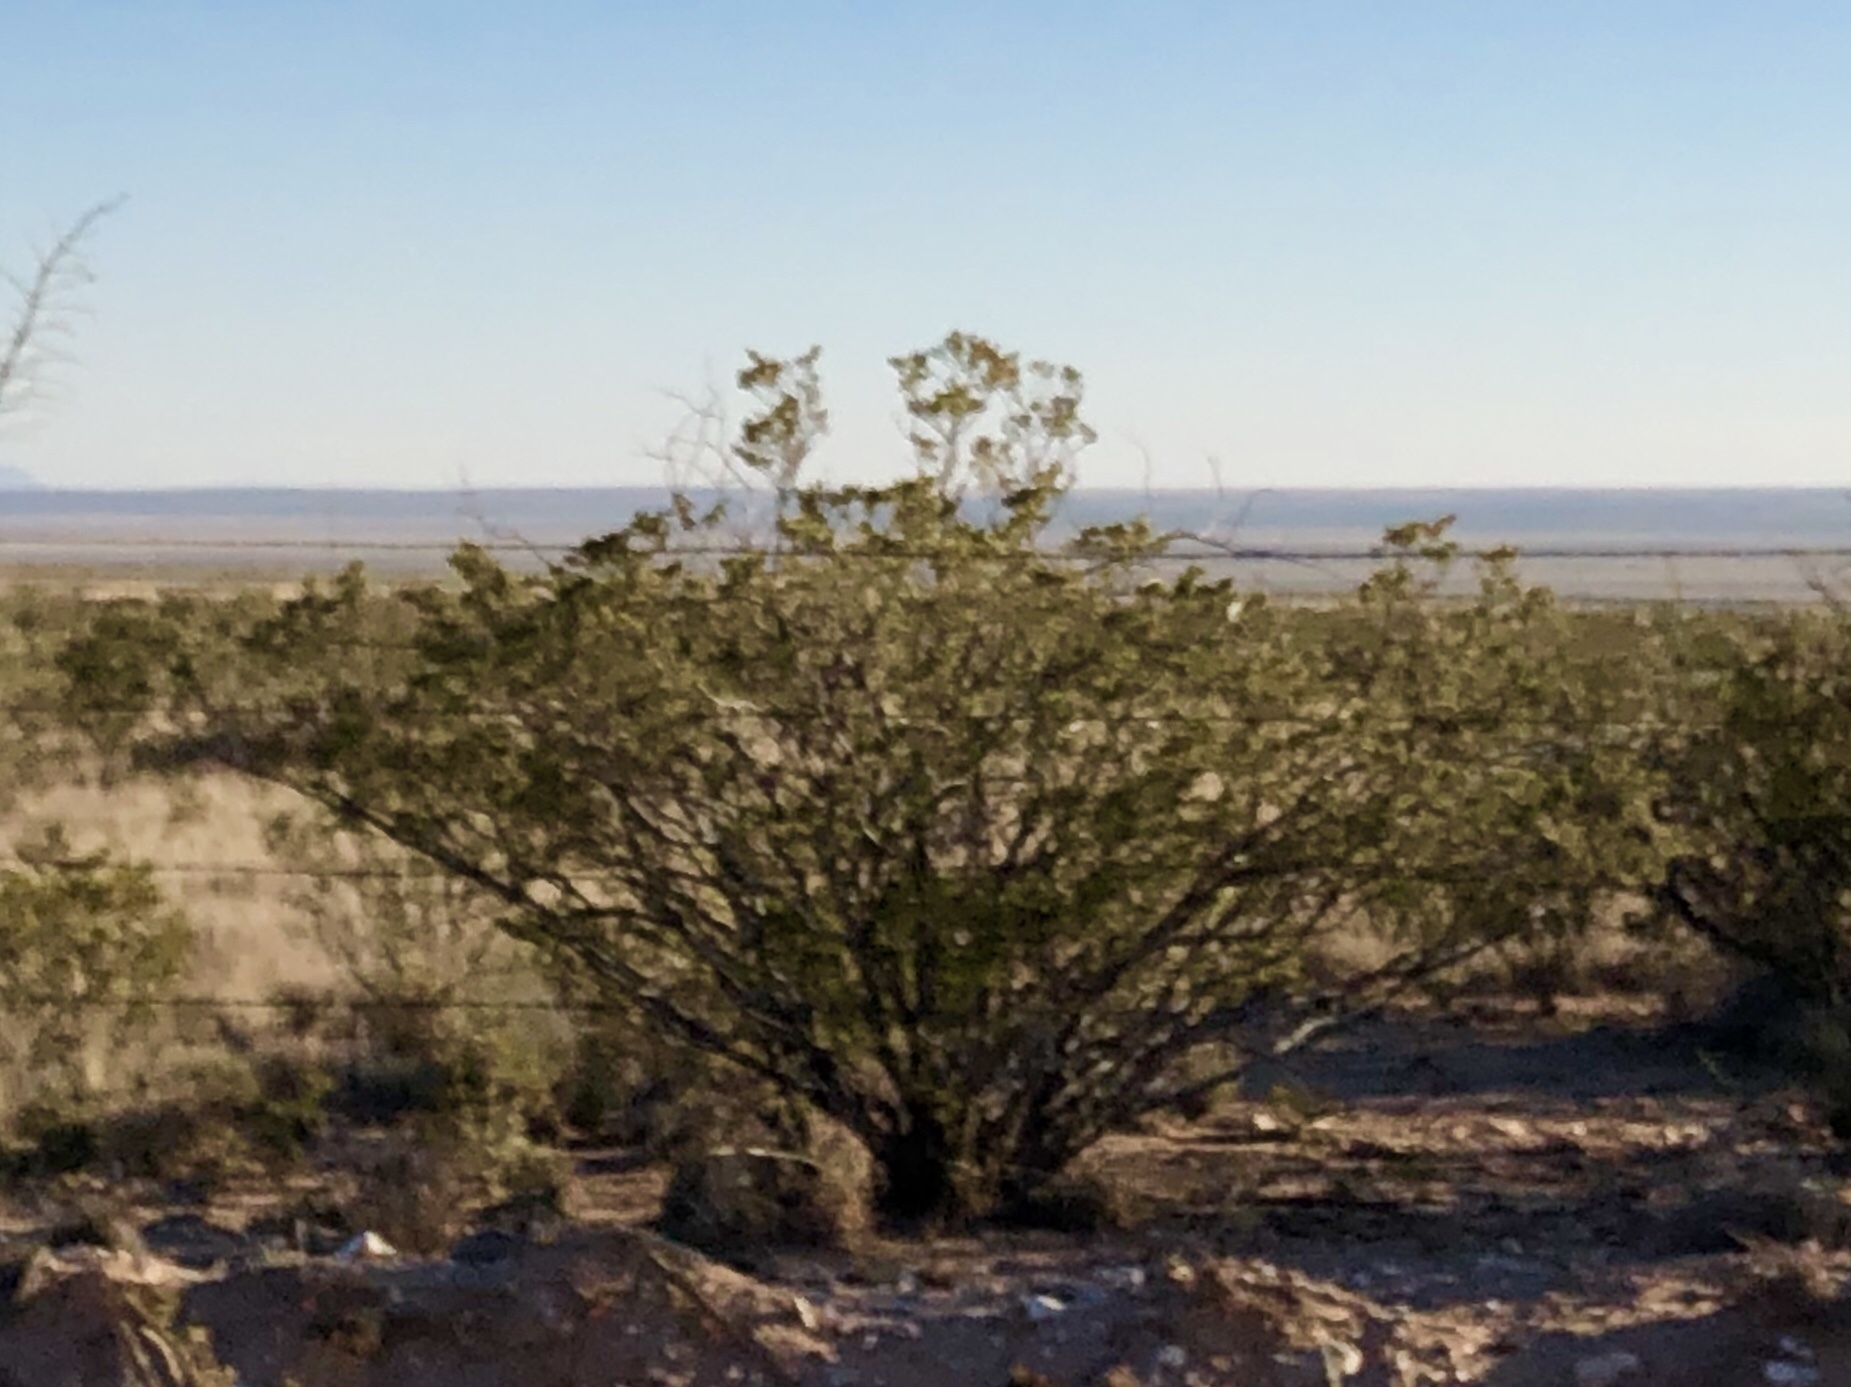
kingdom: Plantae
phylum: Tracheophyta
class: Magnoliopsida
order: Zygophyllales
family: Zygophyllaceae
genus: Larrea
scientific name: Larrea tridentata
